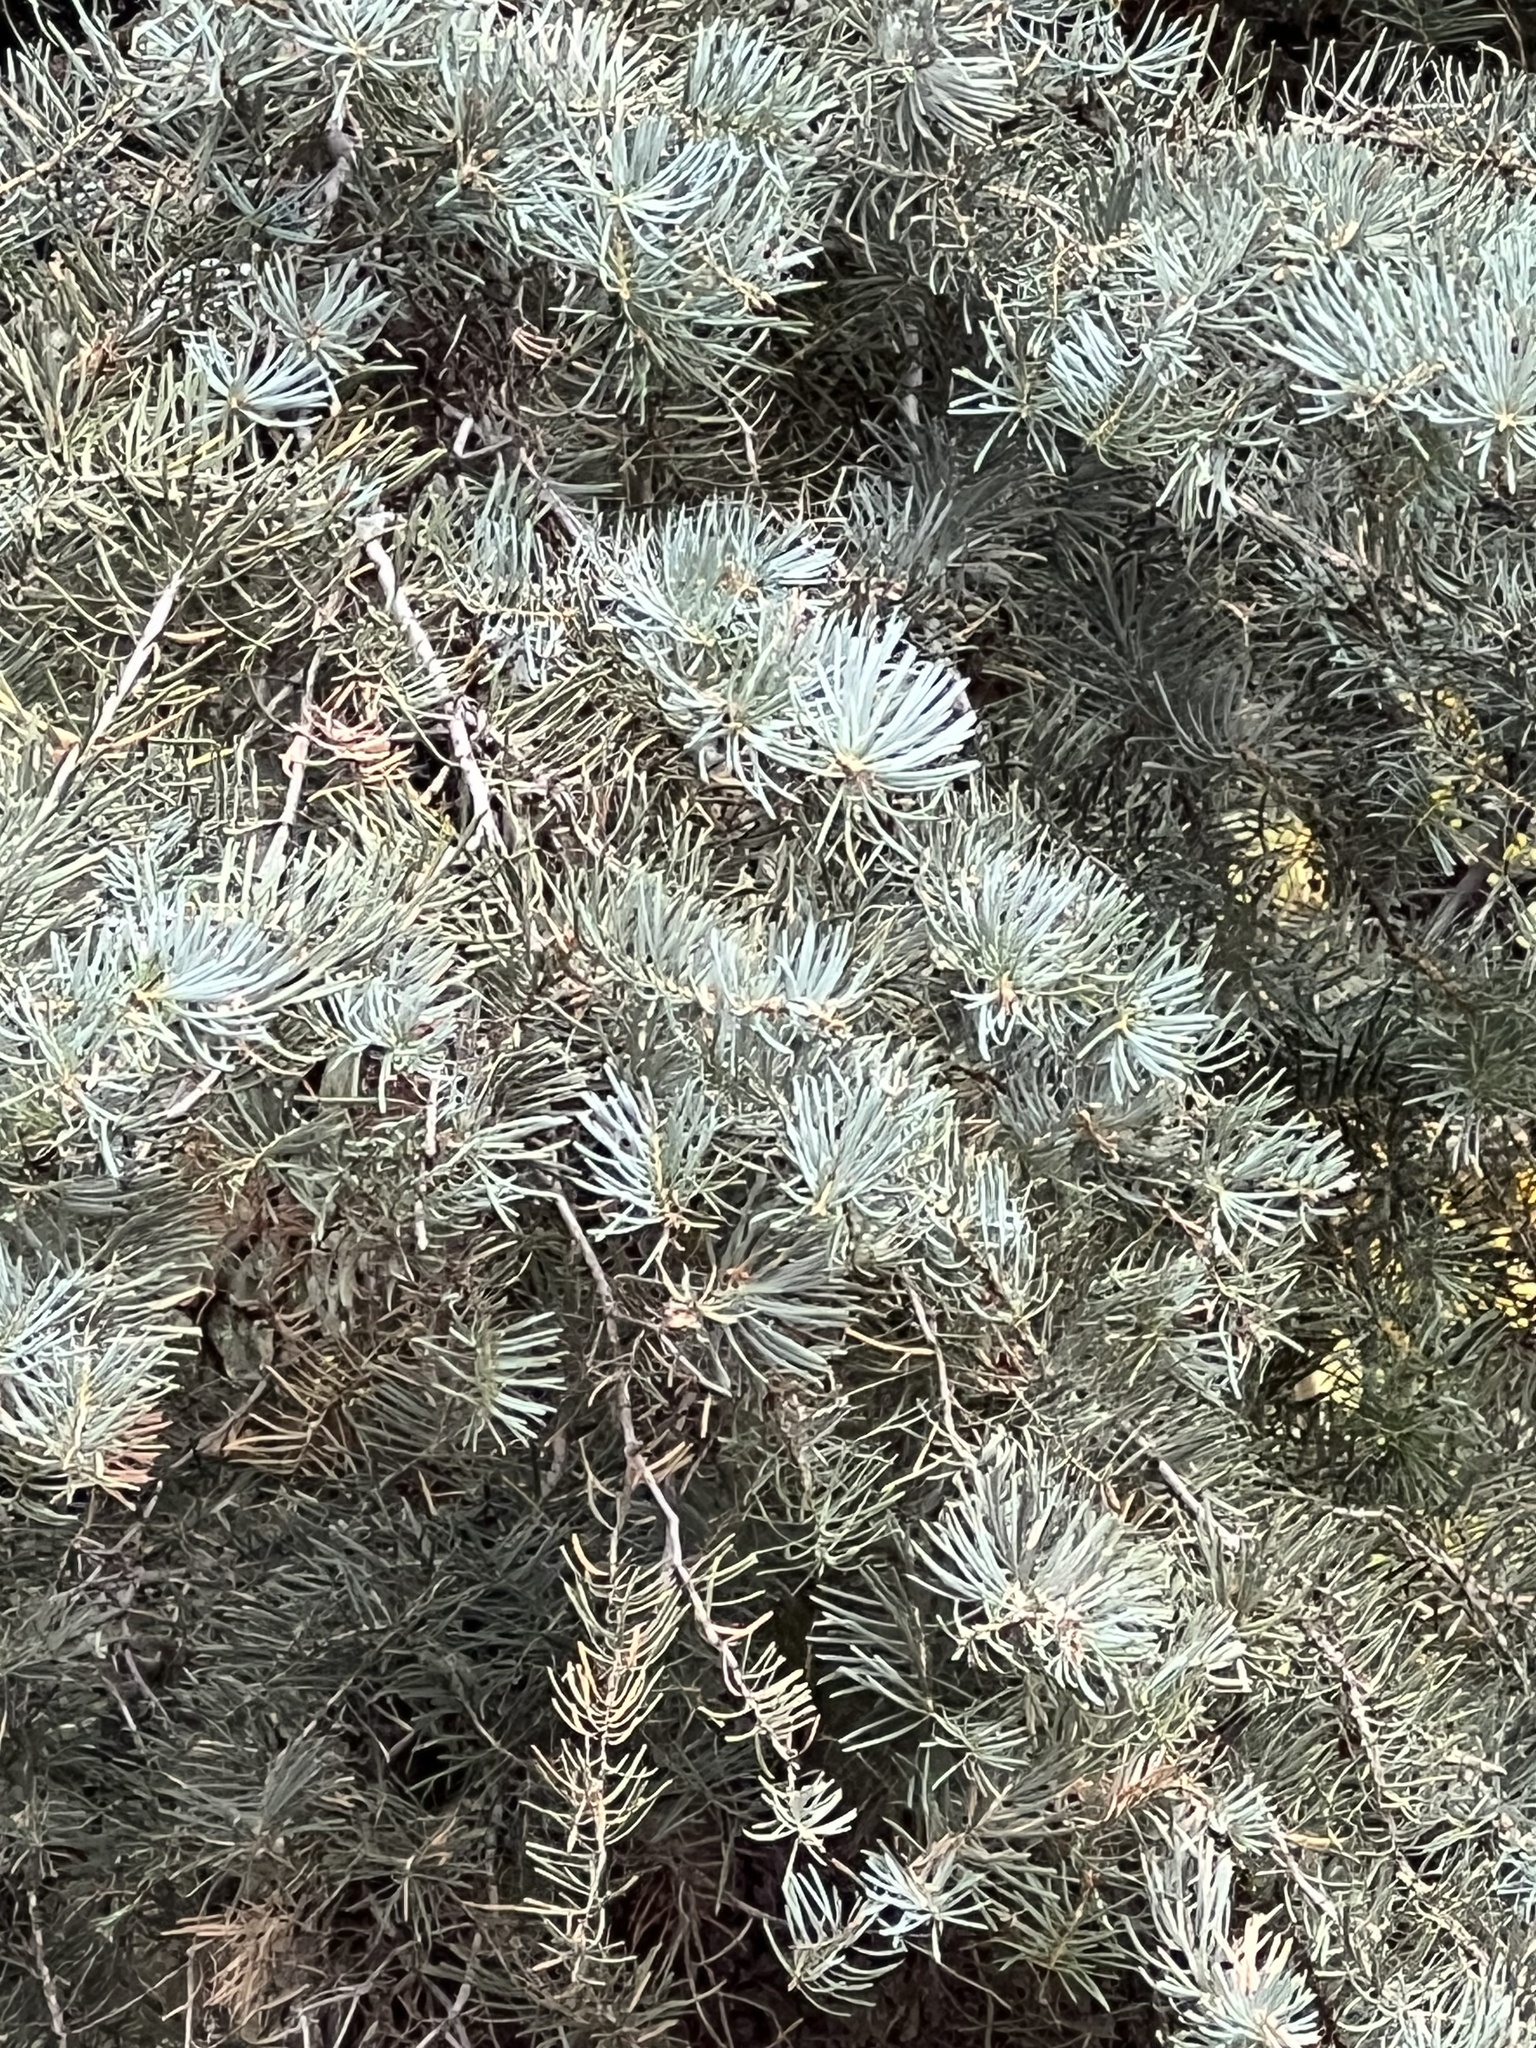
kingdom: Plantae
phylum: Tracheophyta
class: Pinopsida
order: Pinales
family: Pinaceae
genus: Abies
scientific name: Abies concolor
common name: Colorado fir
